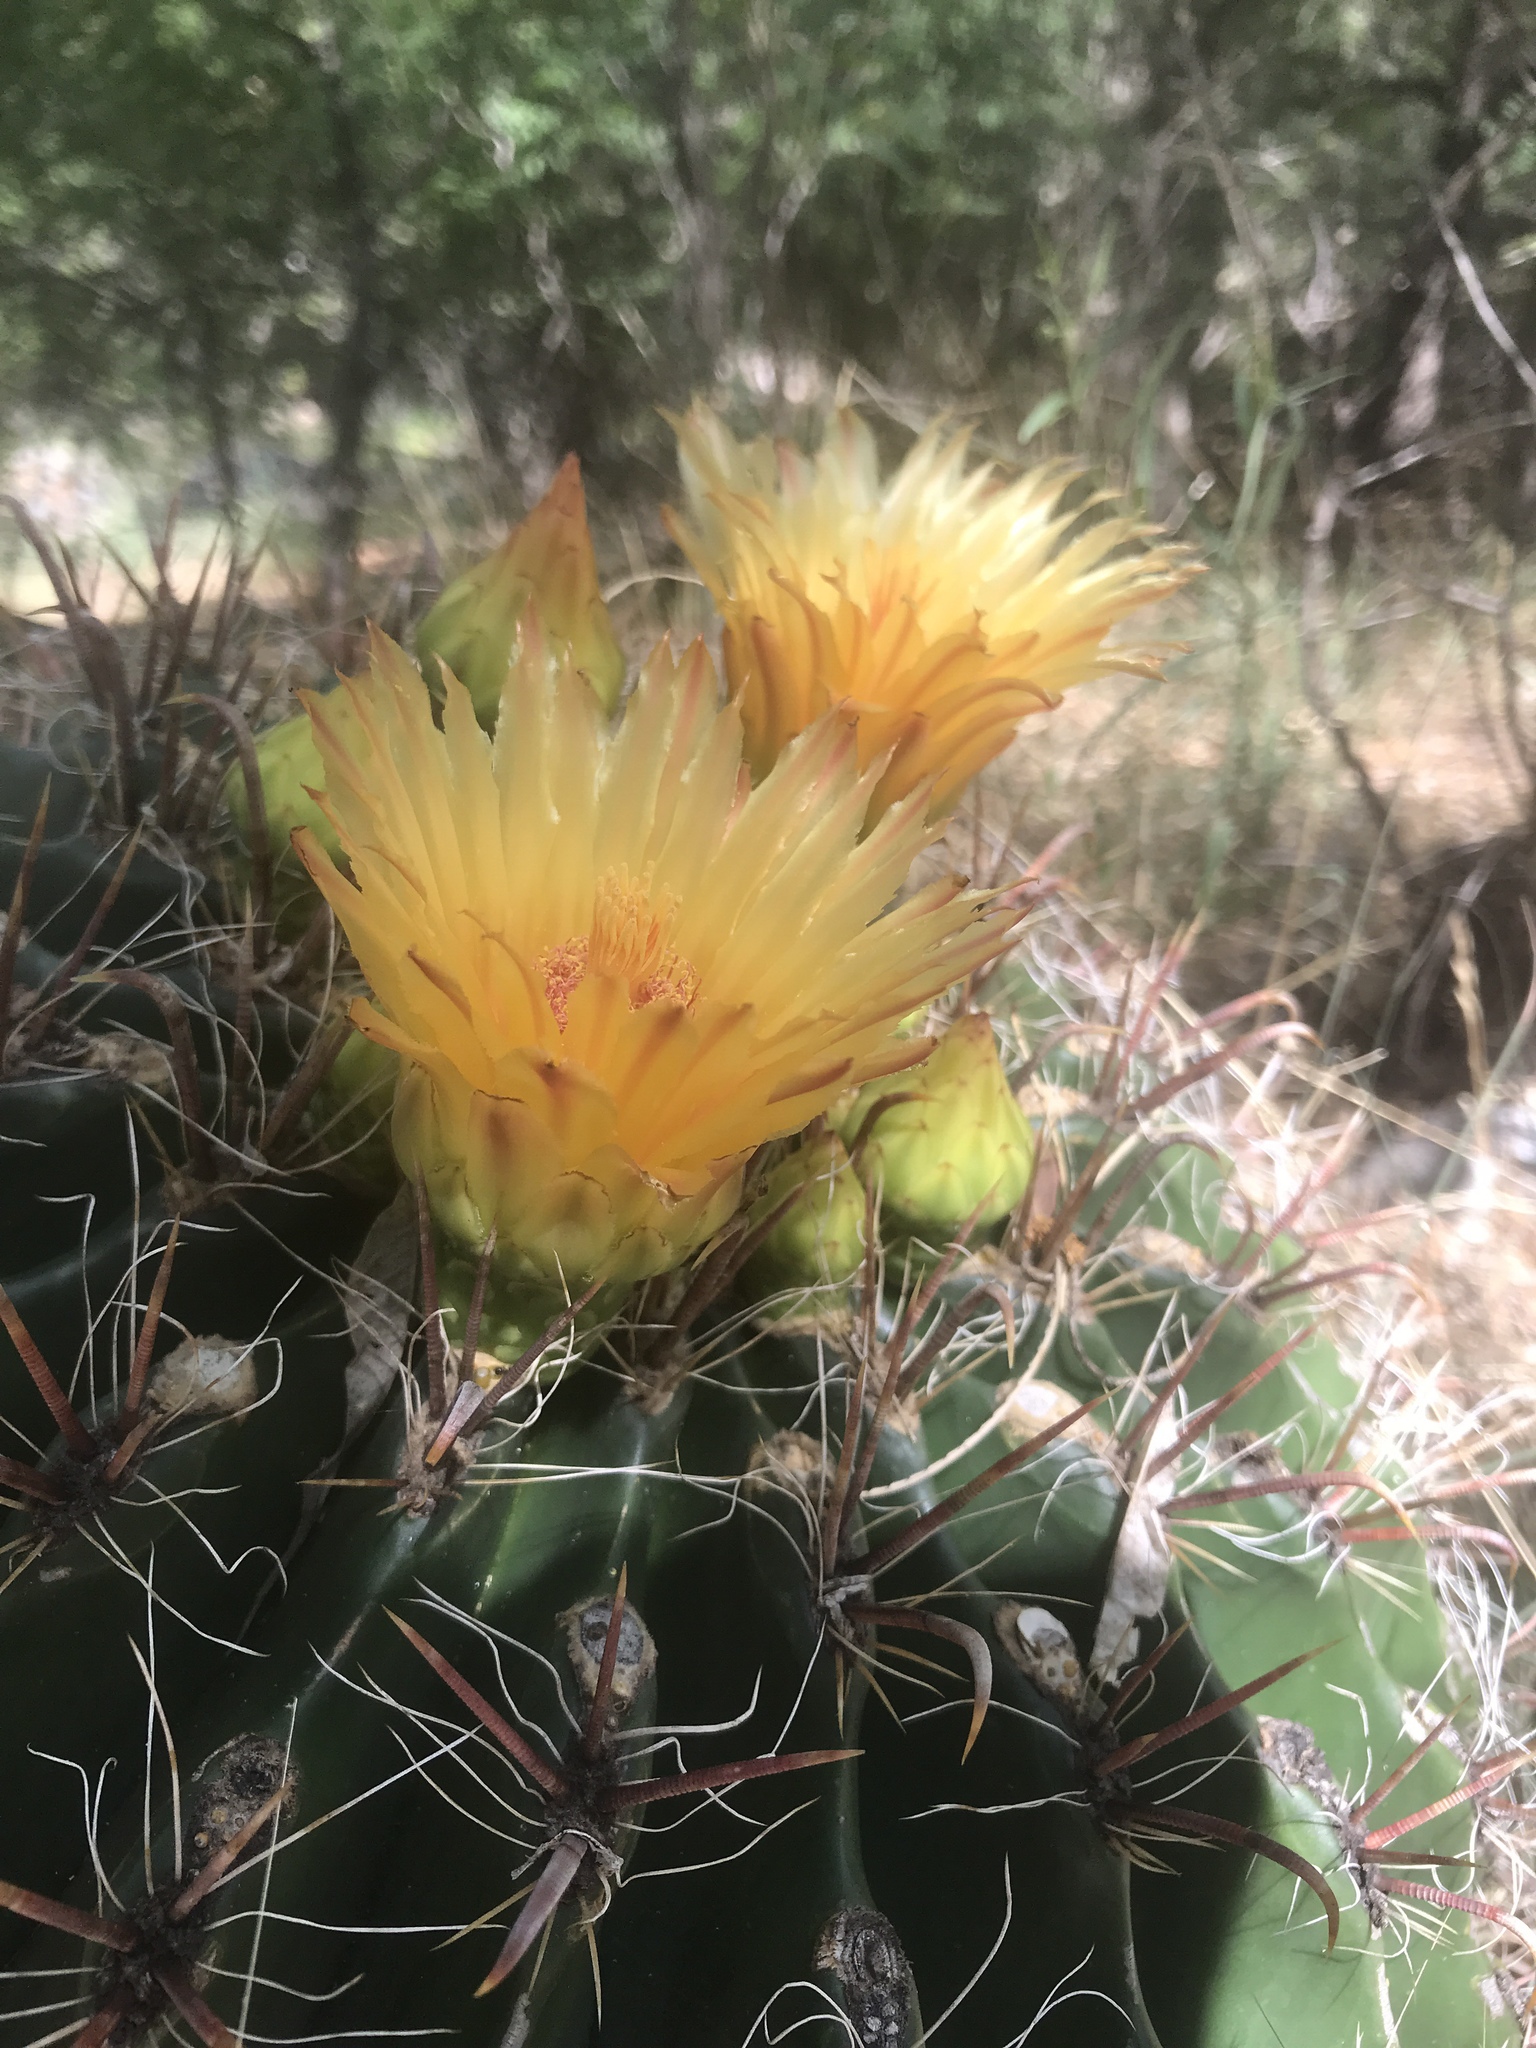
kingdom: Plantae
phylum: Tracheophyta
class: Magnoliopsida
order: Caryophyllales
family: Cactaceae
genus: Ferocactus
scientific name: Ferocactus wislizeni
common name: Candy barrel cactus
